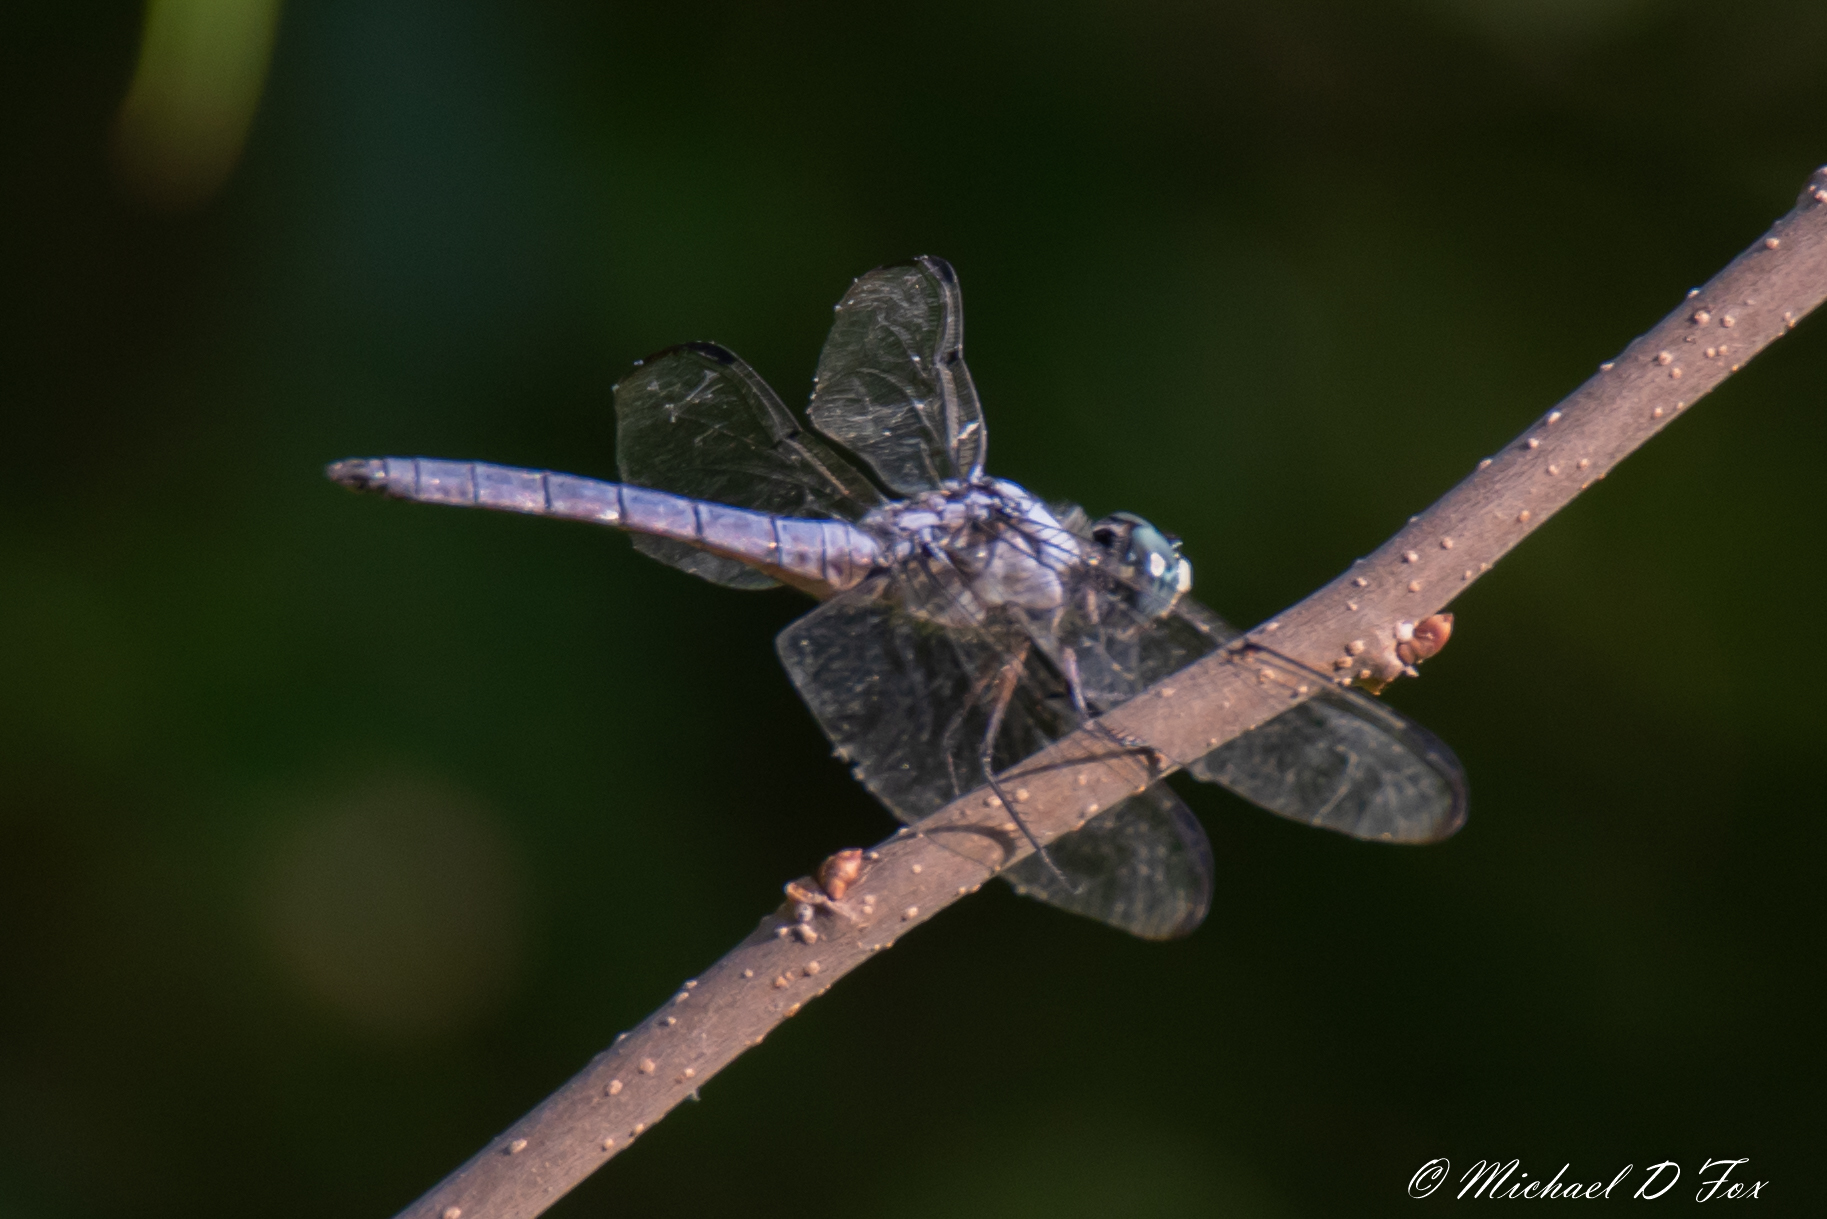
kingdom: Animalia
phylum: Arthropoda
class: Insecta
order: Odonata
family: Libellulidae
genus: Libellula
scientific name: Libellula vibrans
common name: Great blue skimmer
